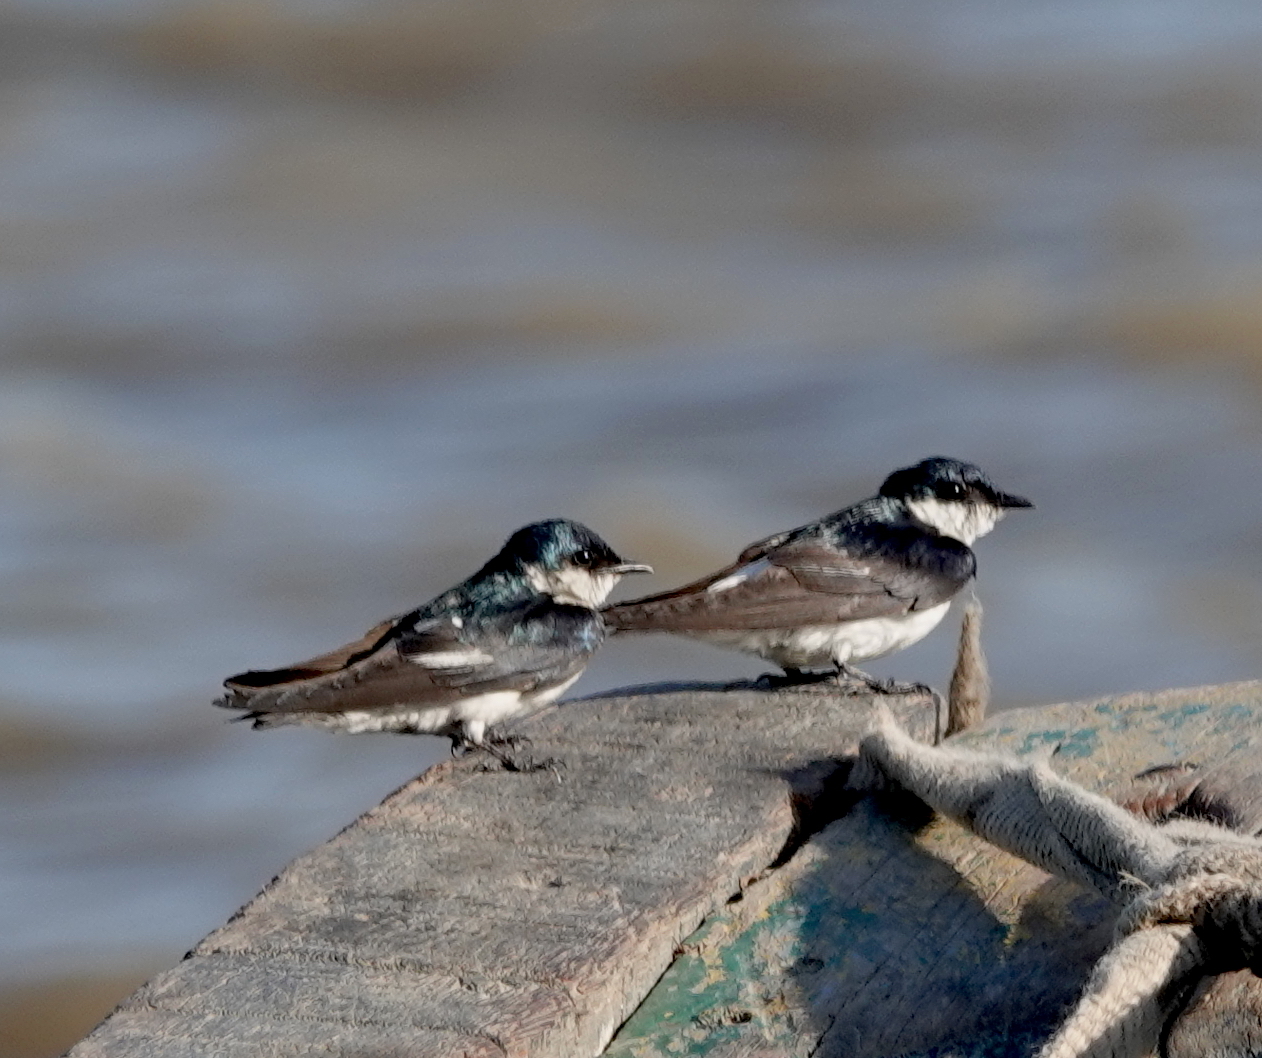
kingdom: Animalia
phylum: Chordata
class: Aves
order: Passeriformes
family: Hirundinidae
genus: Tachycineta
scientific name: Tachycineta albiventer
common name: White-winged swallow
